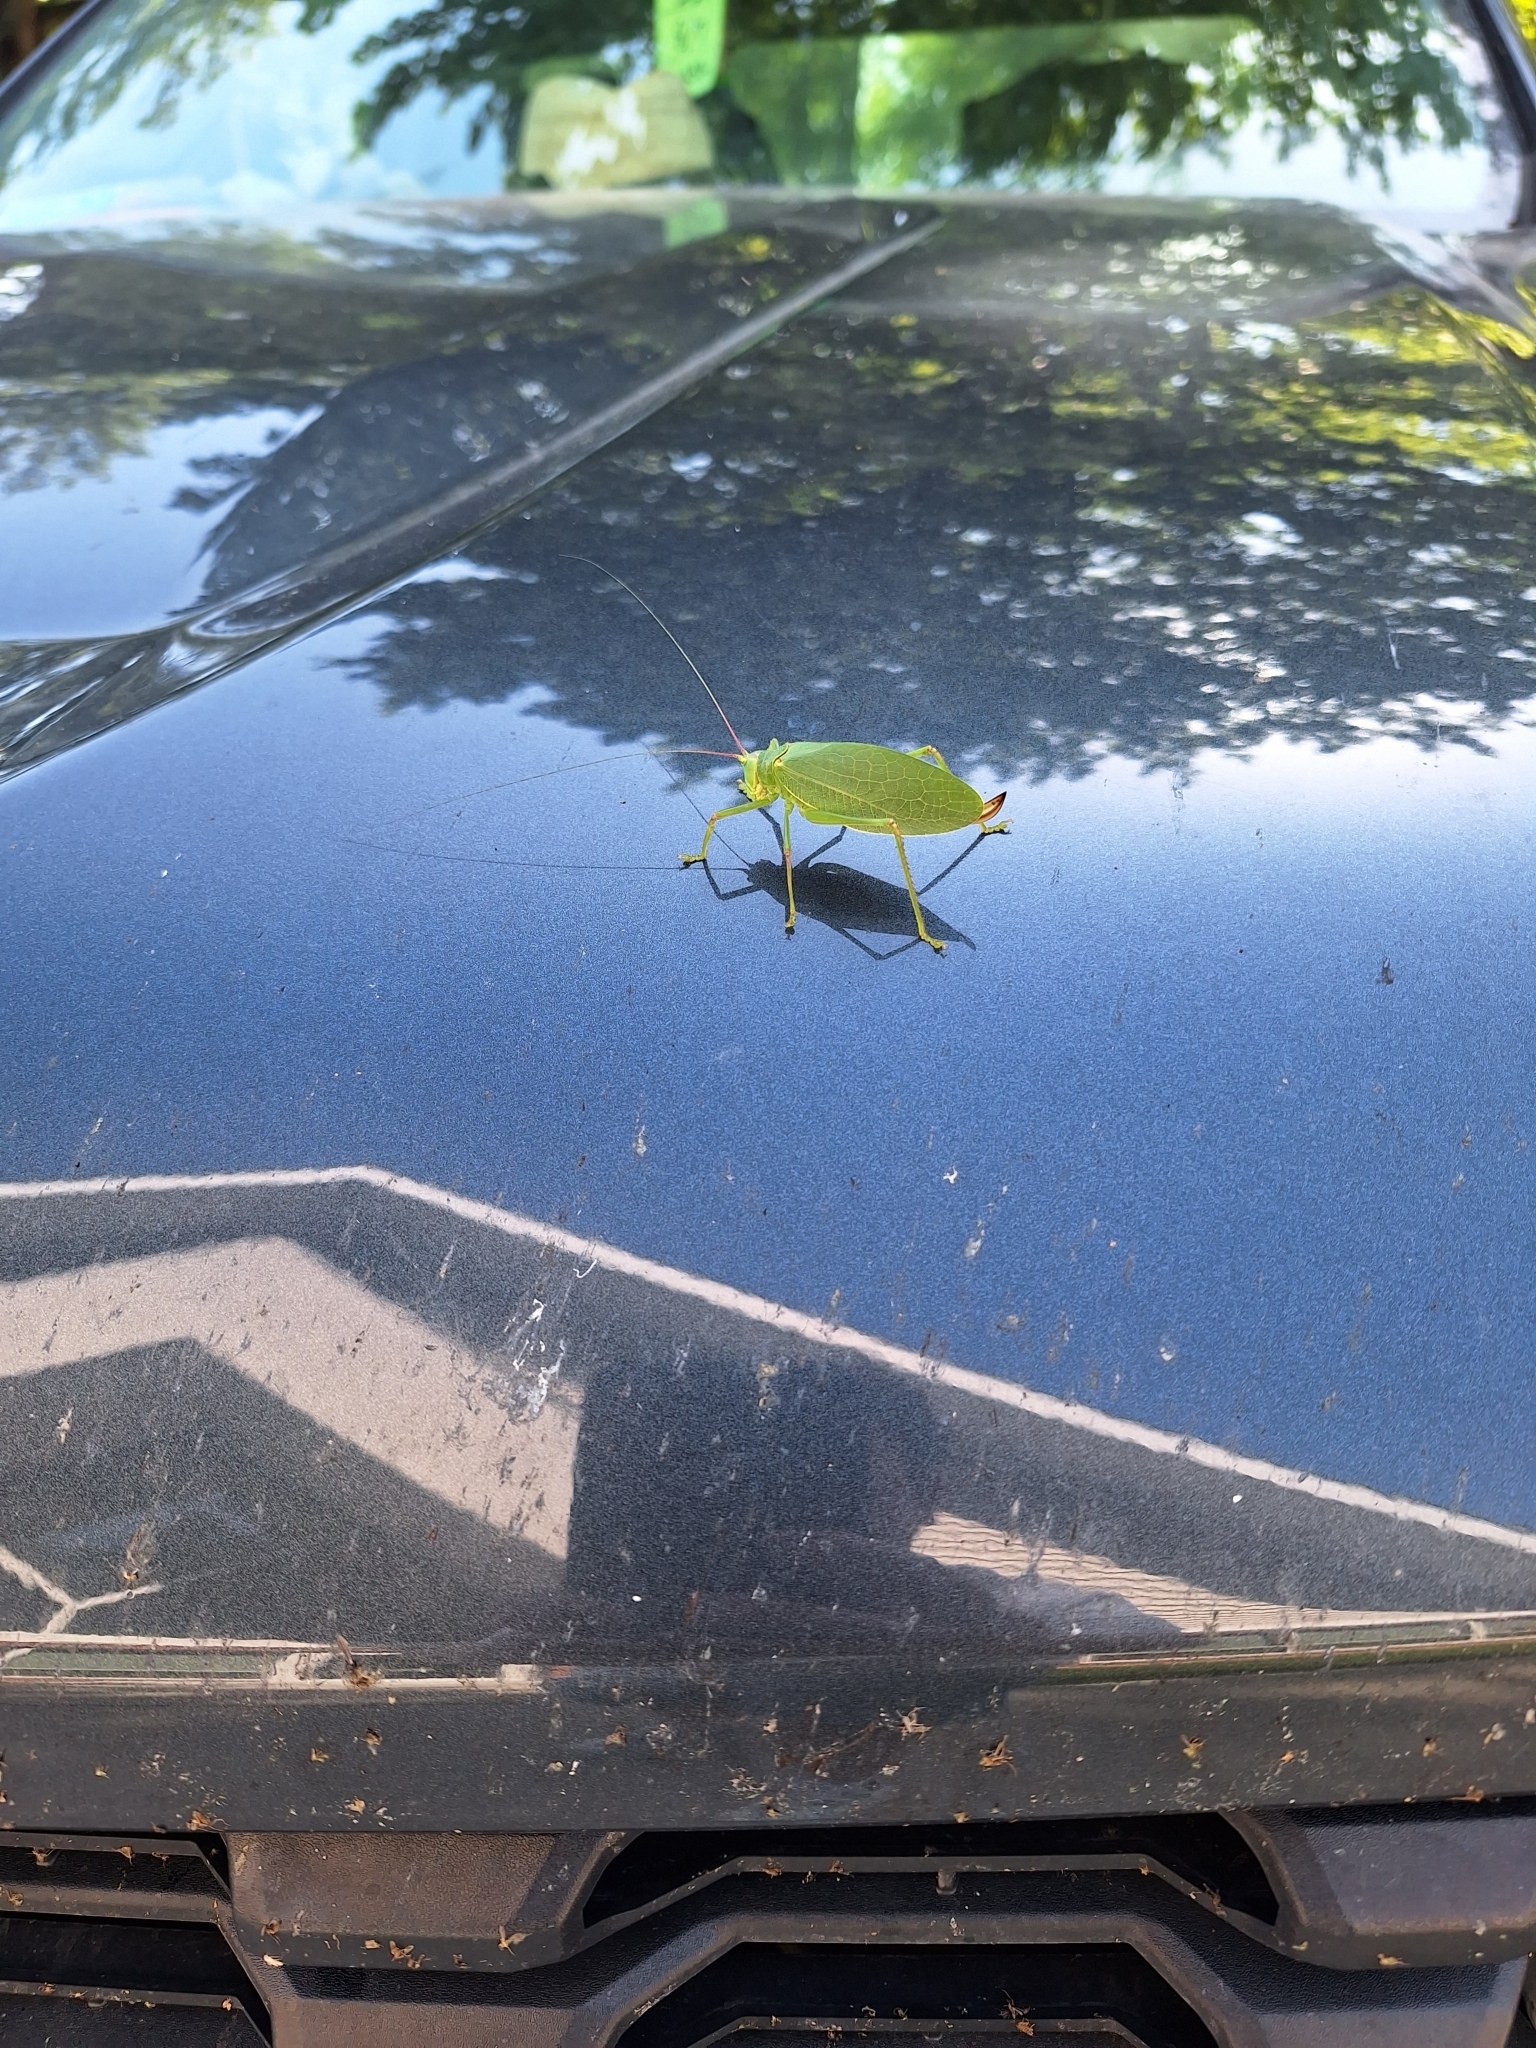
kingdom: Animalia
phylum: Arthropoda
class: Insecta
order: Orthoptera
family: Tettigoniidae
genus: Pterophylla
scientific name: Pterophylla camellifolia
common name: Common true katydid
